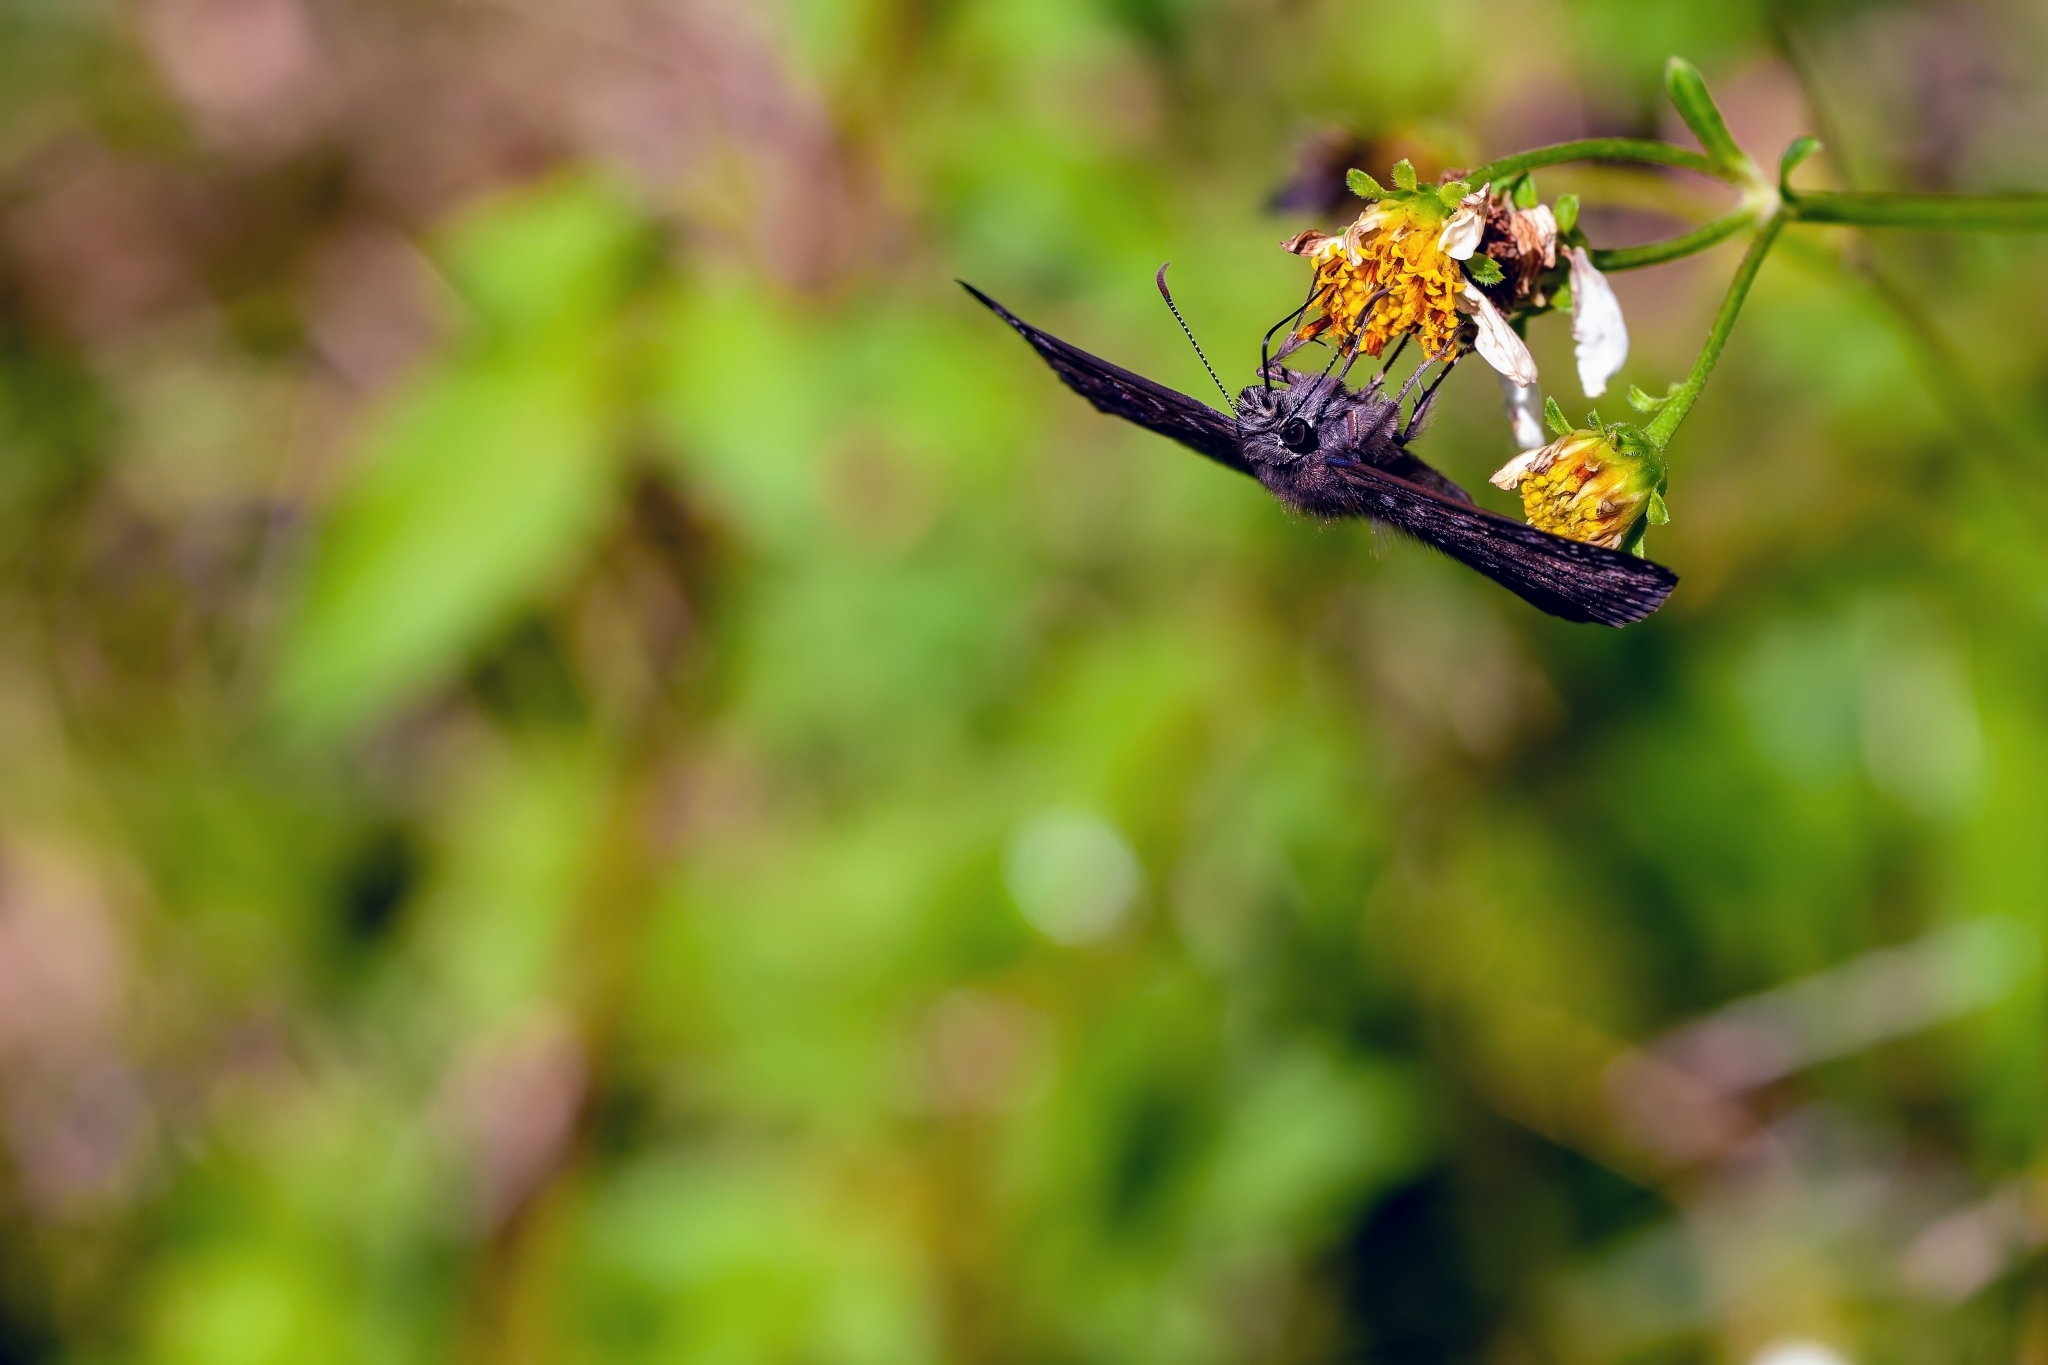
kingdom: Animalia
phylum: Arthropoda
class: Insecta
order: Lepidoptera
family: Hesperiidae
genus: Erynnis
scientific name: Erynnis horatius
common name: Horace's duskywing
